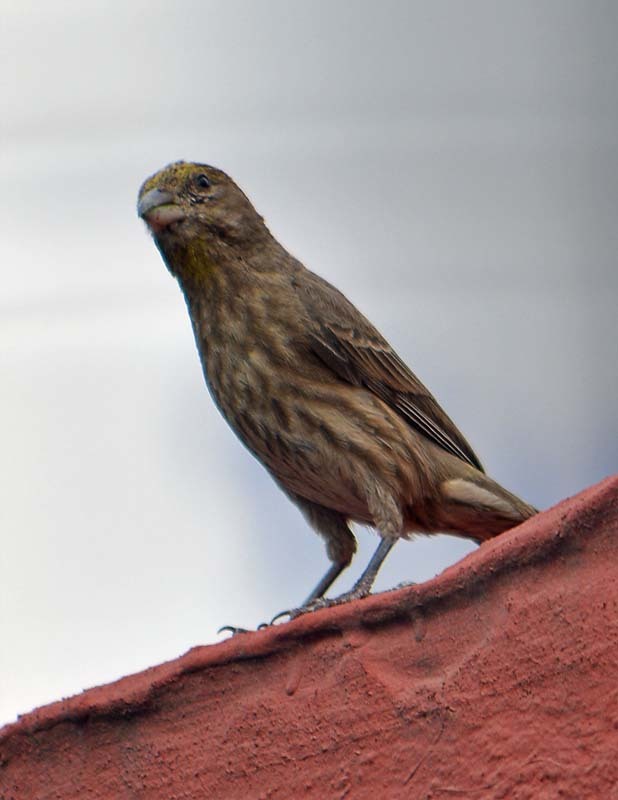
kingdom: Animalia
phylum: Chordata
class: Aves
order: Passeriformes
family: Fringillidae
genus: Haemorhous
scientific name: Haemorhous mexicanus
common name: House finch
